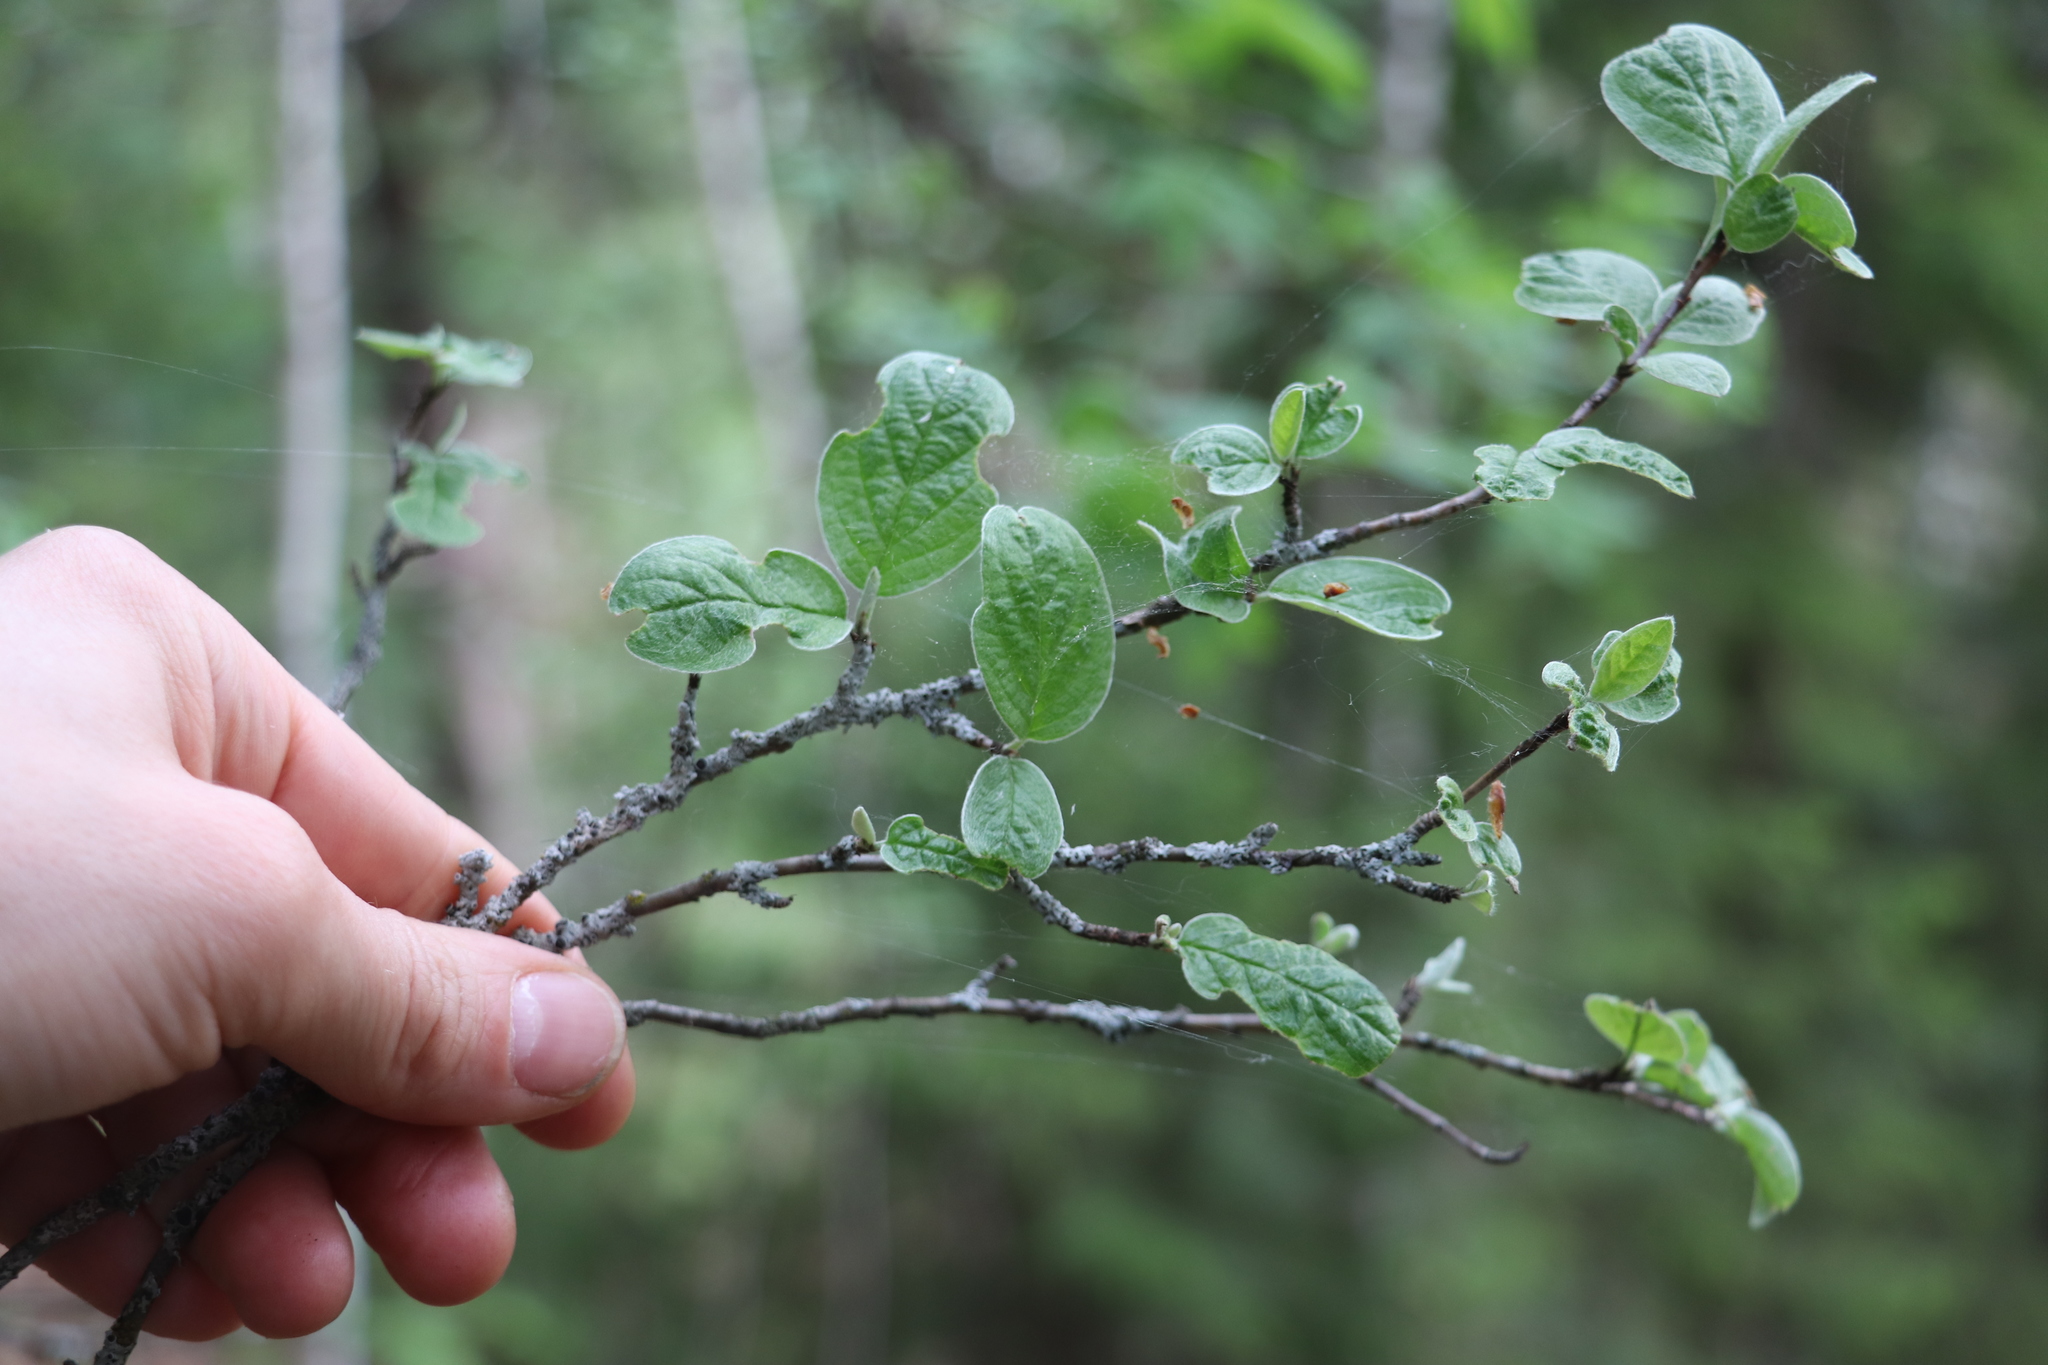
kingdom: Plantae
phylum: Tracheophyta
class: Magnoliopsida
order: Rosales
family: Rosaceae
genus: Cotoneaster
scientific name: Cotoneaster melanocarpus
